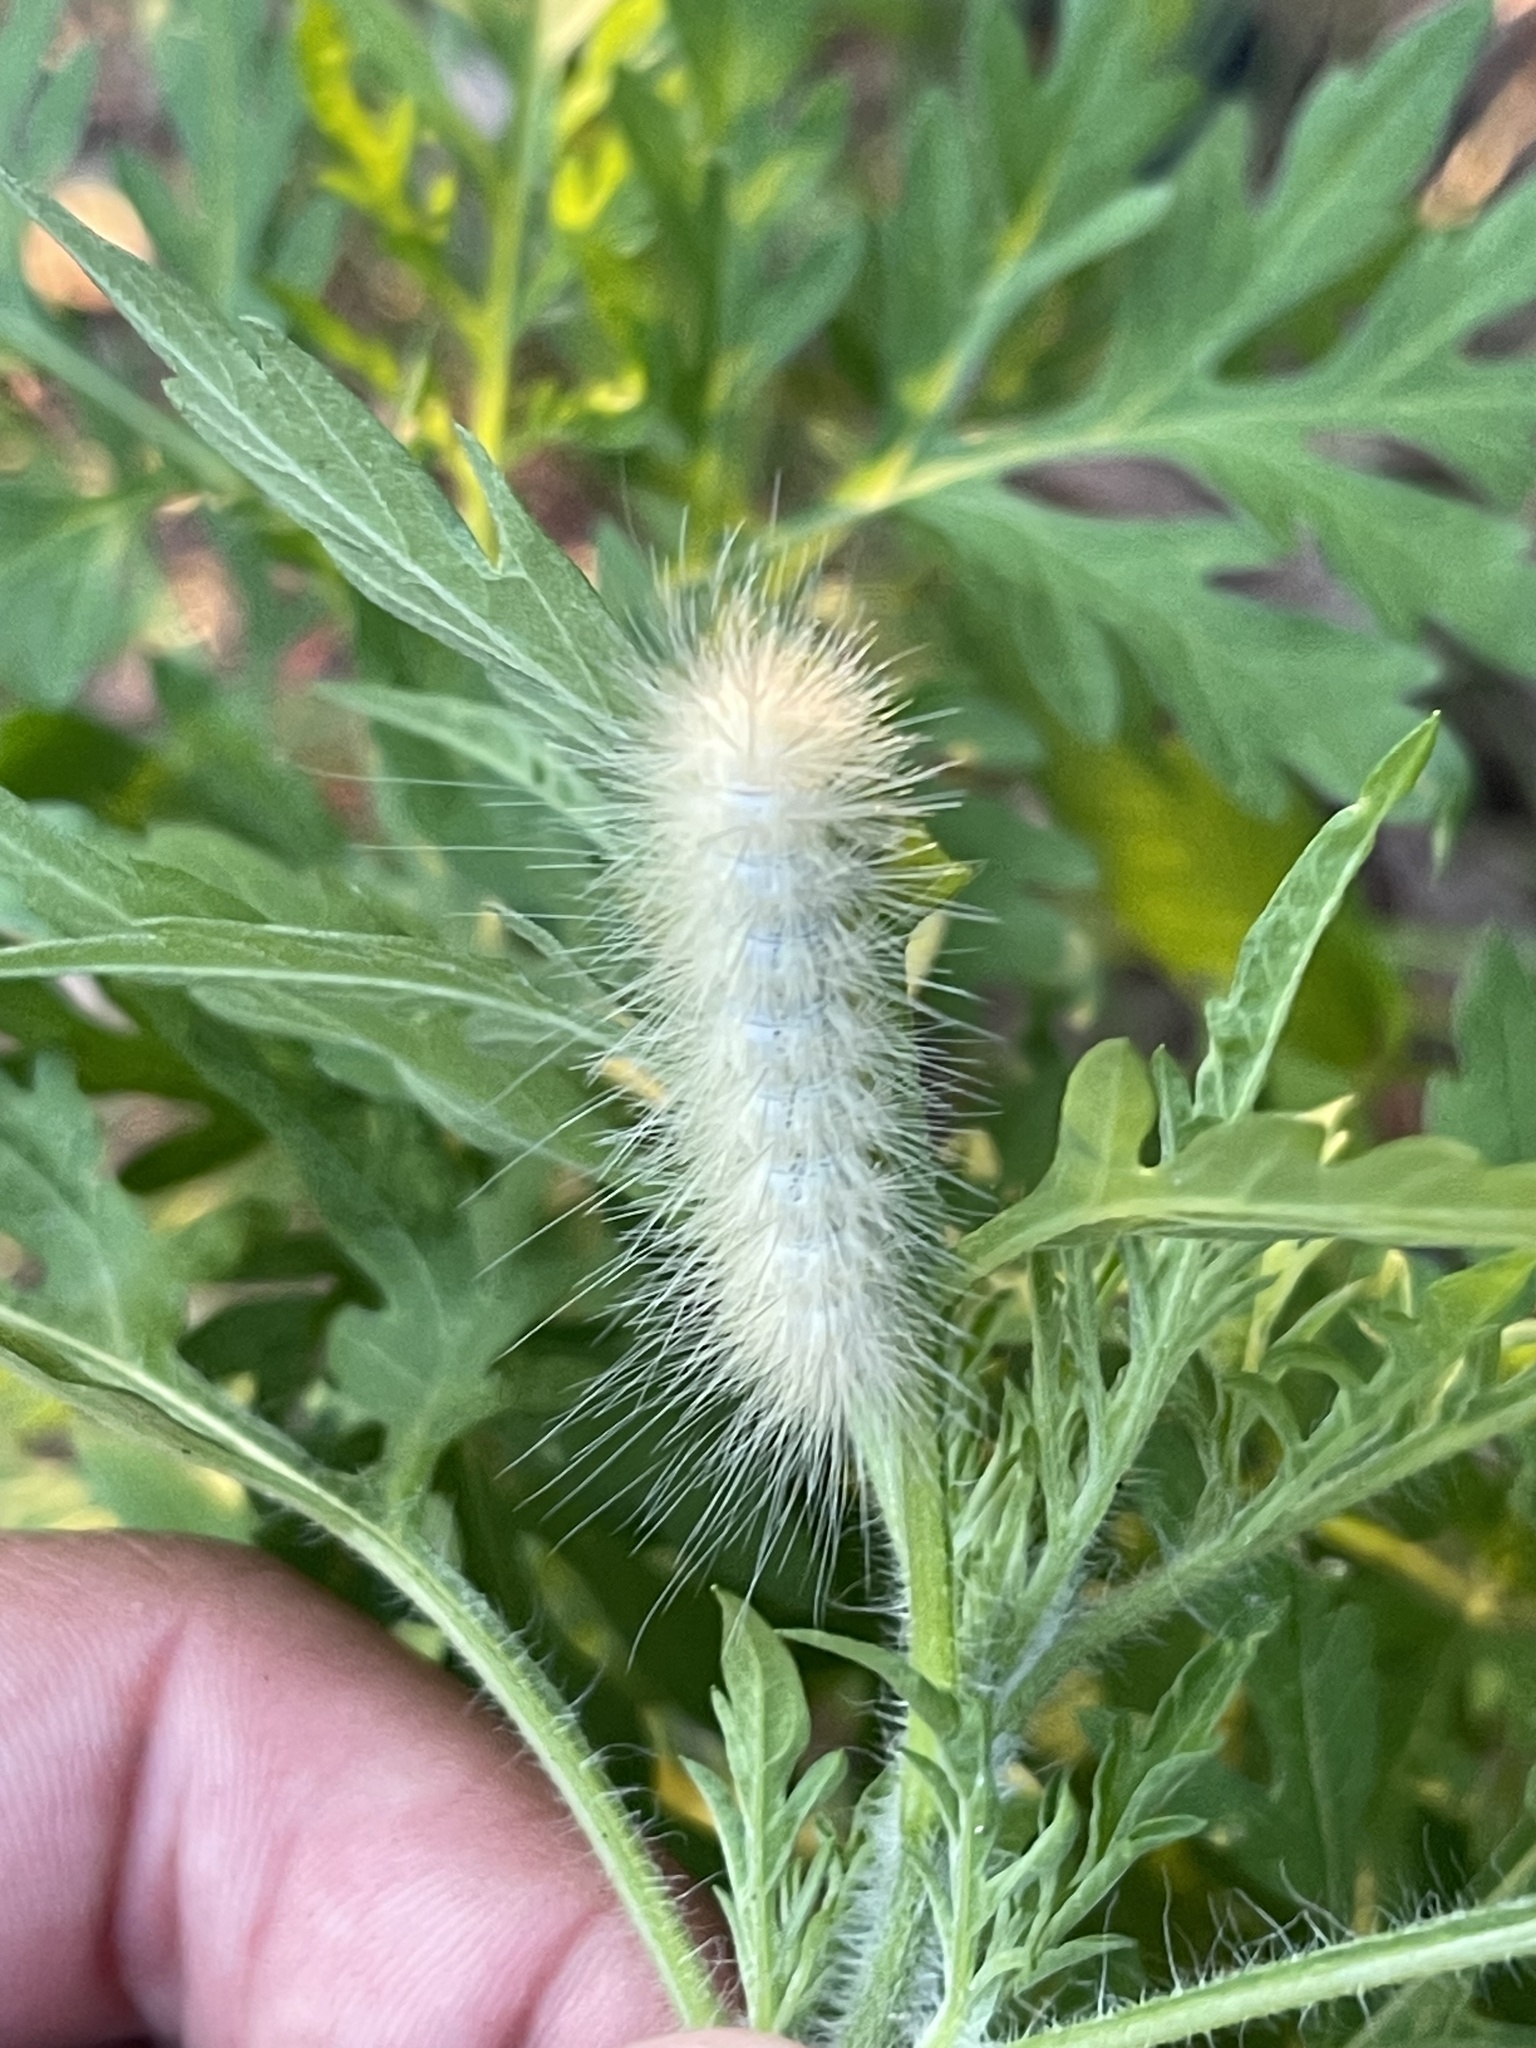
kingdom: Animalia
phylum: Arthropoda
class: Insecta
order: Lepidoptera
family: Erebidae
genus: Spilosoma
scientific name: Spilosoma virginica
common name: Virginia tiger moth
